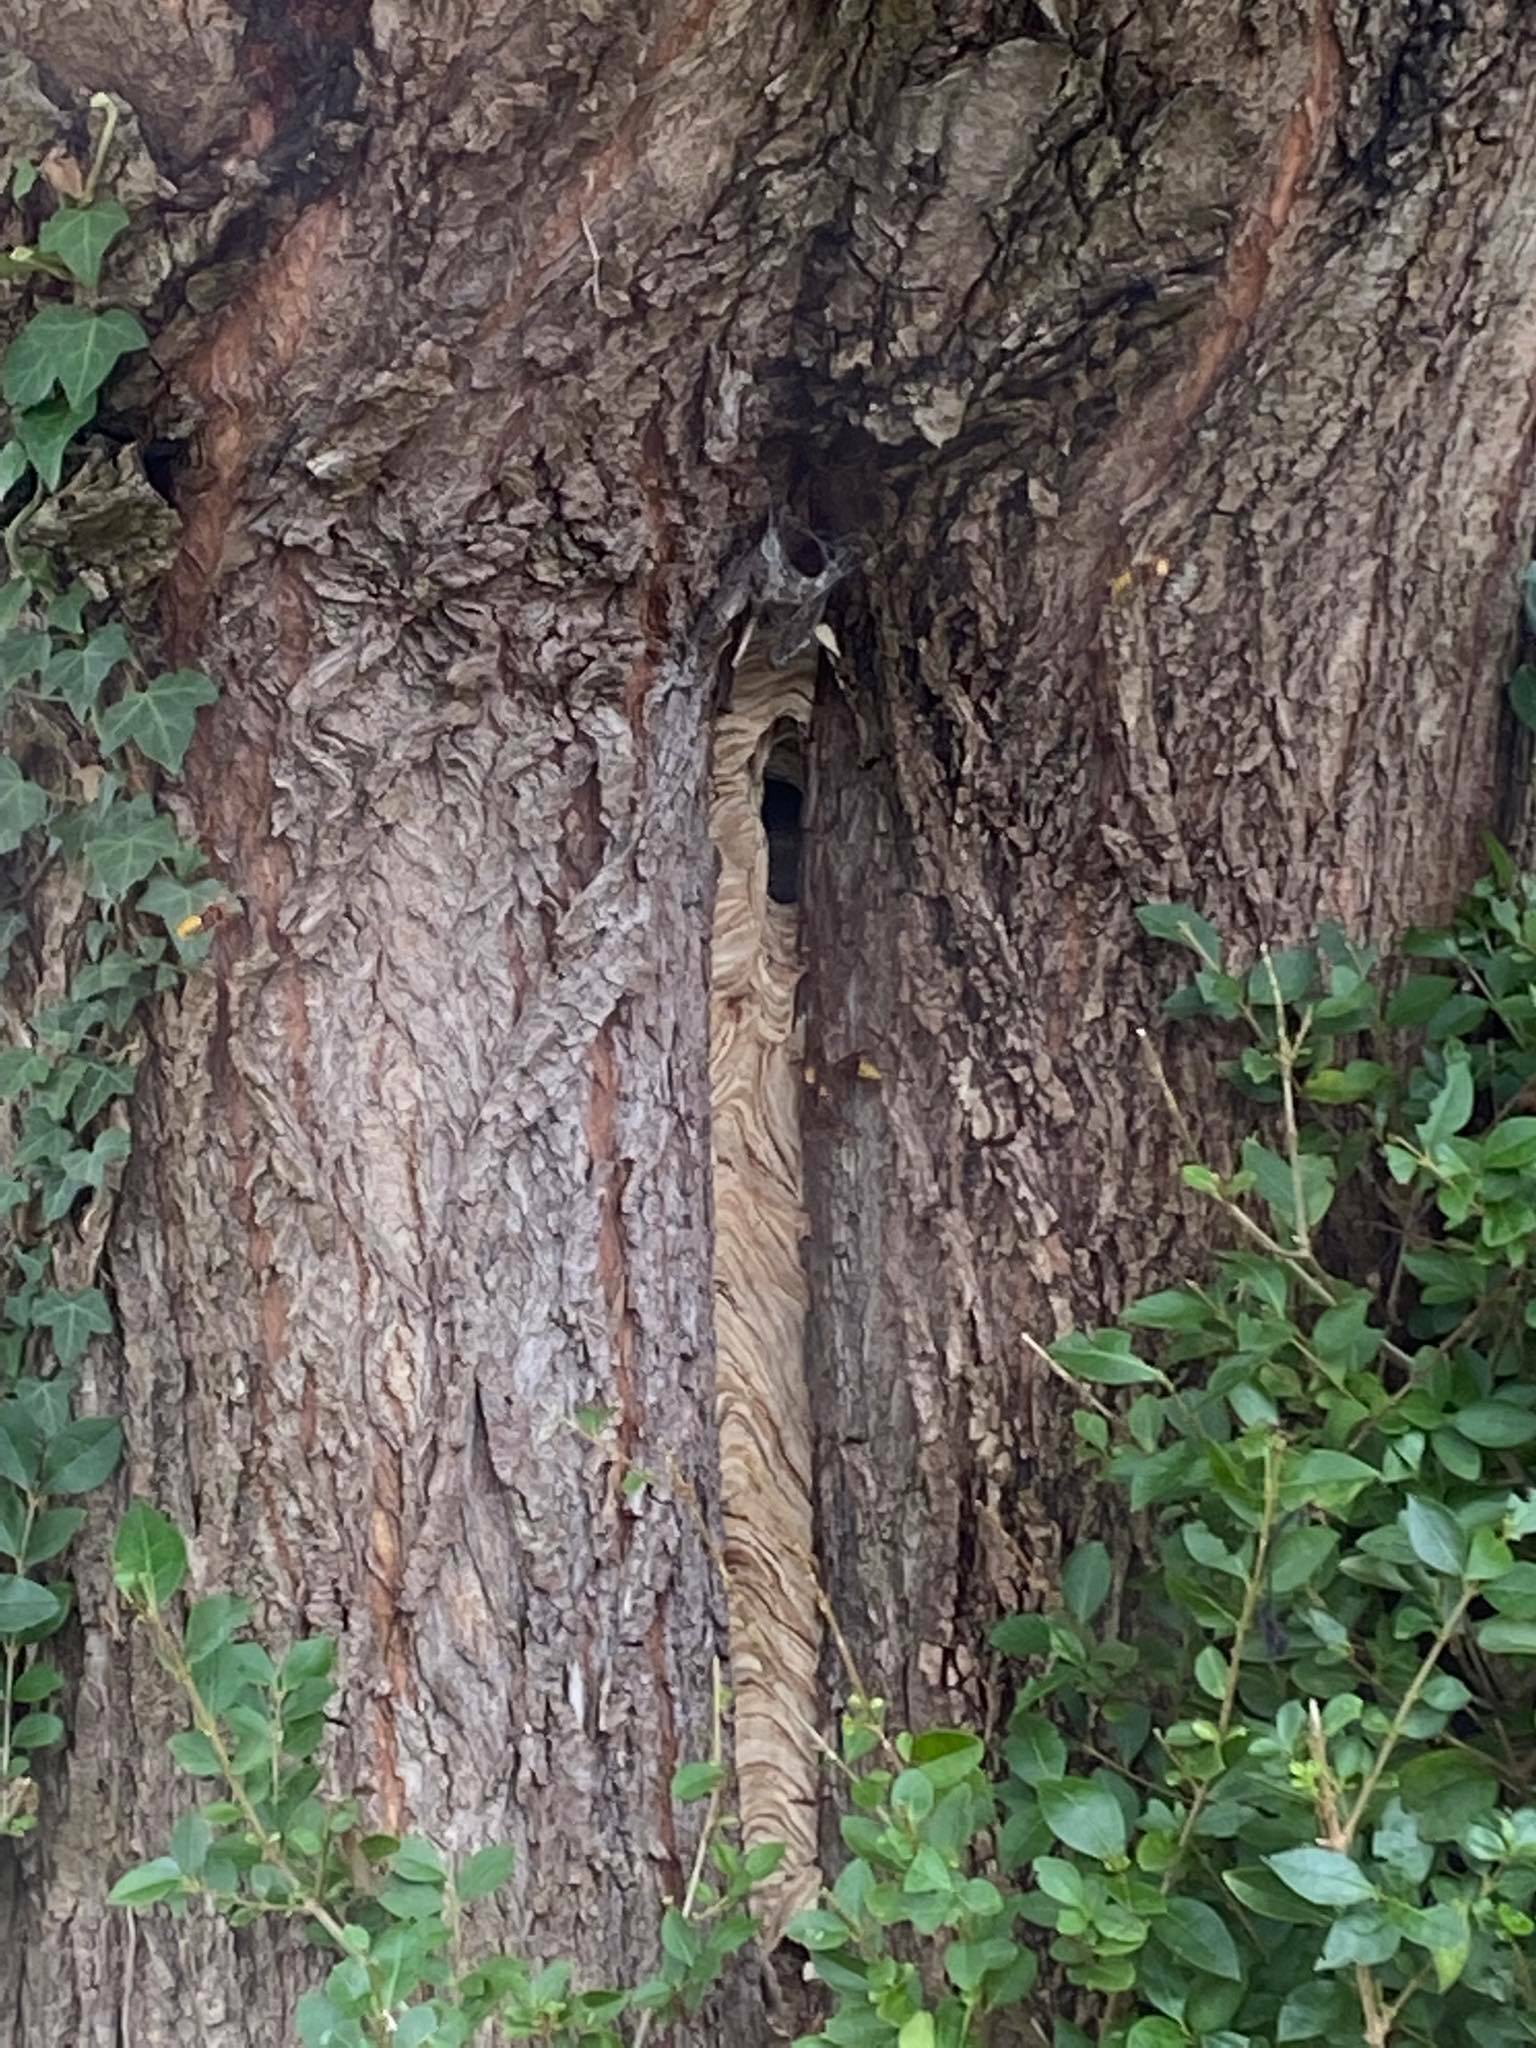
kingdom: Animalia
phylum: Arthropoda
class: Insecta
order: Hymenoptera
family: Vespidae
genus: Vespa
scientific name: Vespa crabro
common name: Hornet
